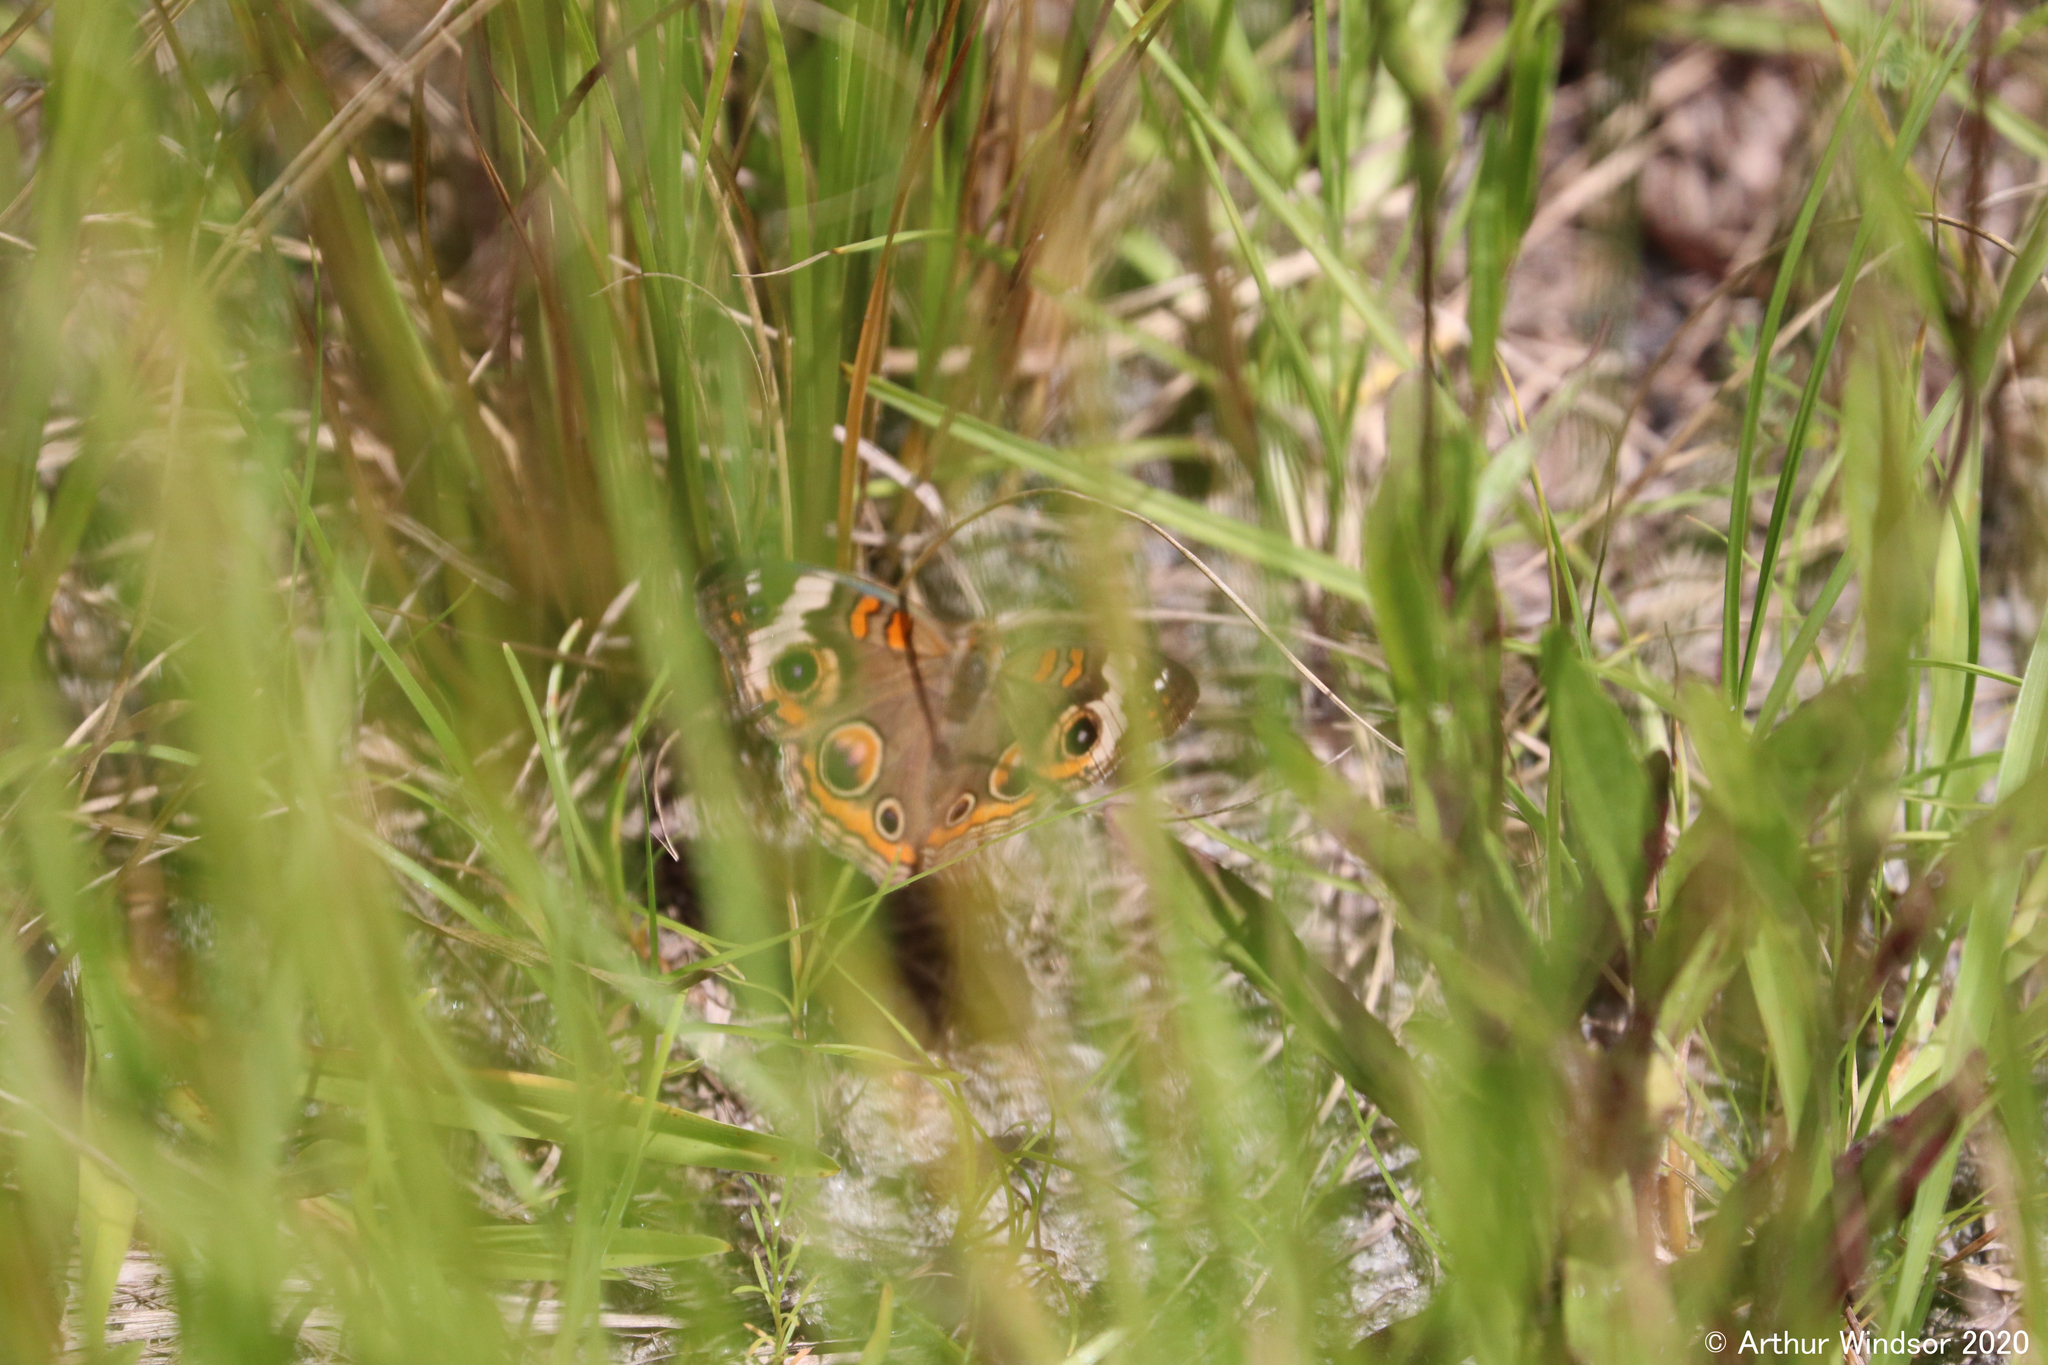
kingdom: Animalia
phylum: Arthropoda
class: Insecta
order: Lepidoptera
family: Nymphalidae
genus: Junonia
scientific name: Junonia coenia
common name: Common buckeye
